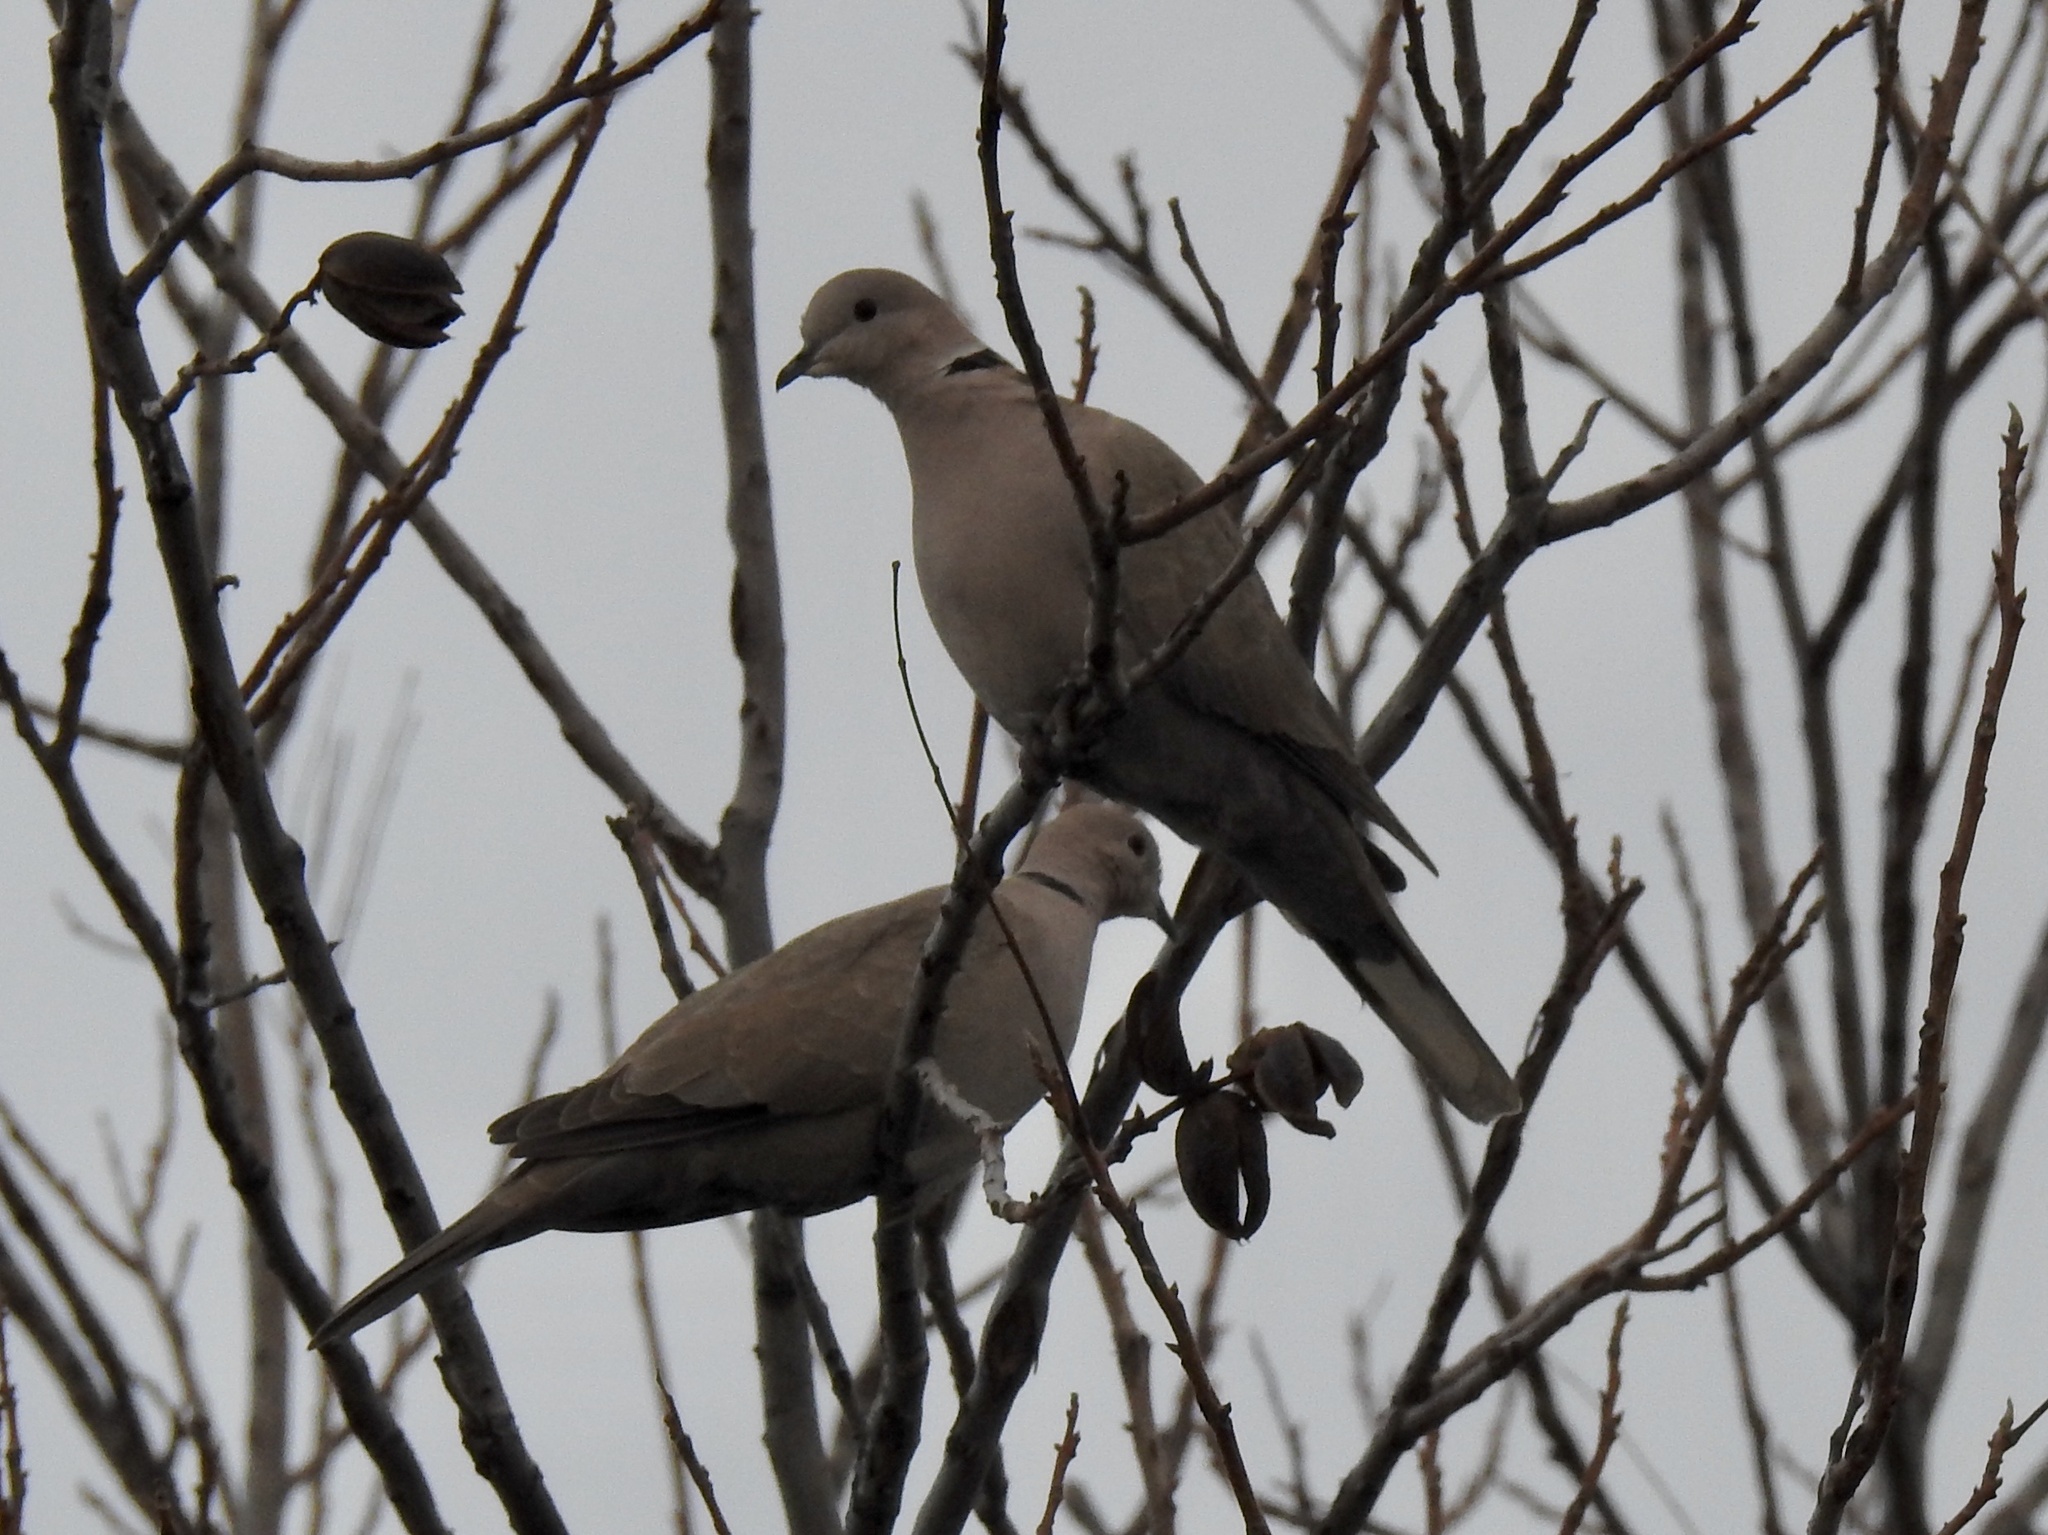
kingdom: Animalia
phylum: Chordata
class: Aves
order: Columbiformes
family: Columbidae
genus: Streptopelia
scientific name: Streptopelia decaocto
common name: Eurasian collared dove
